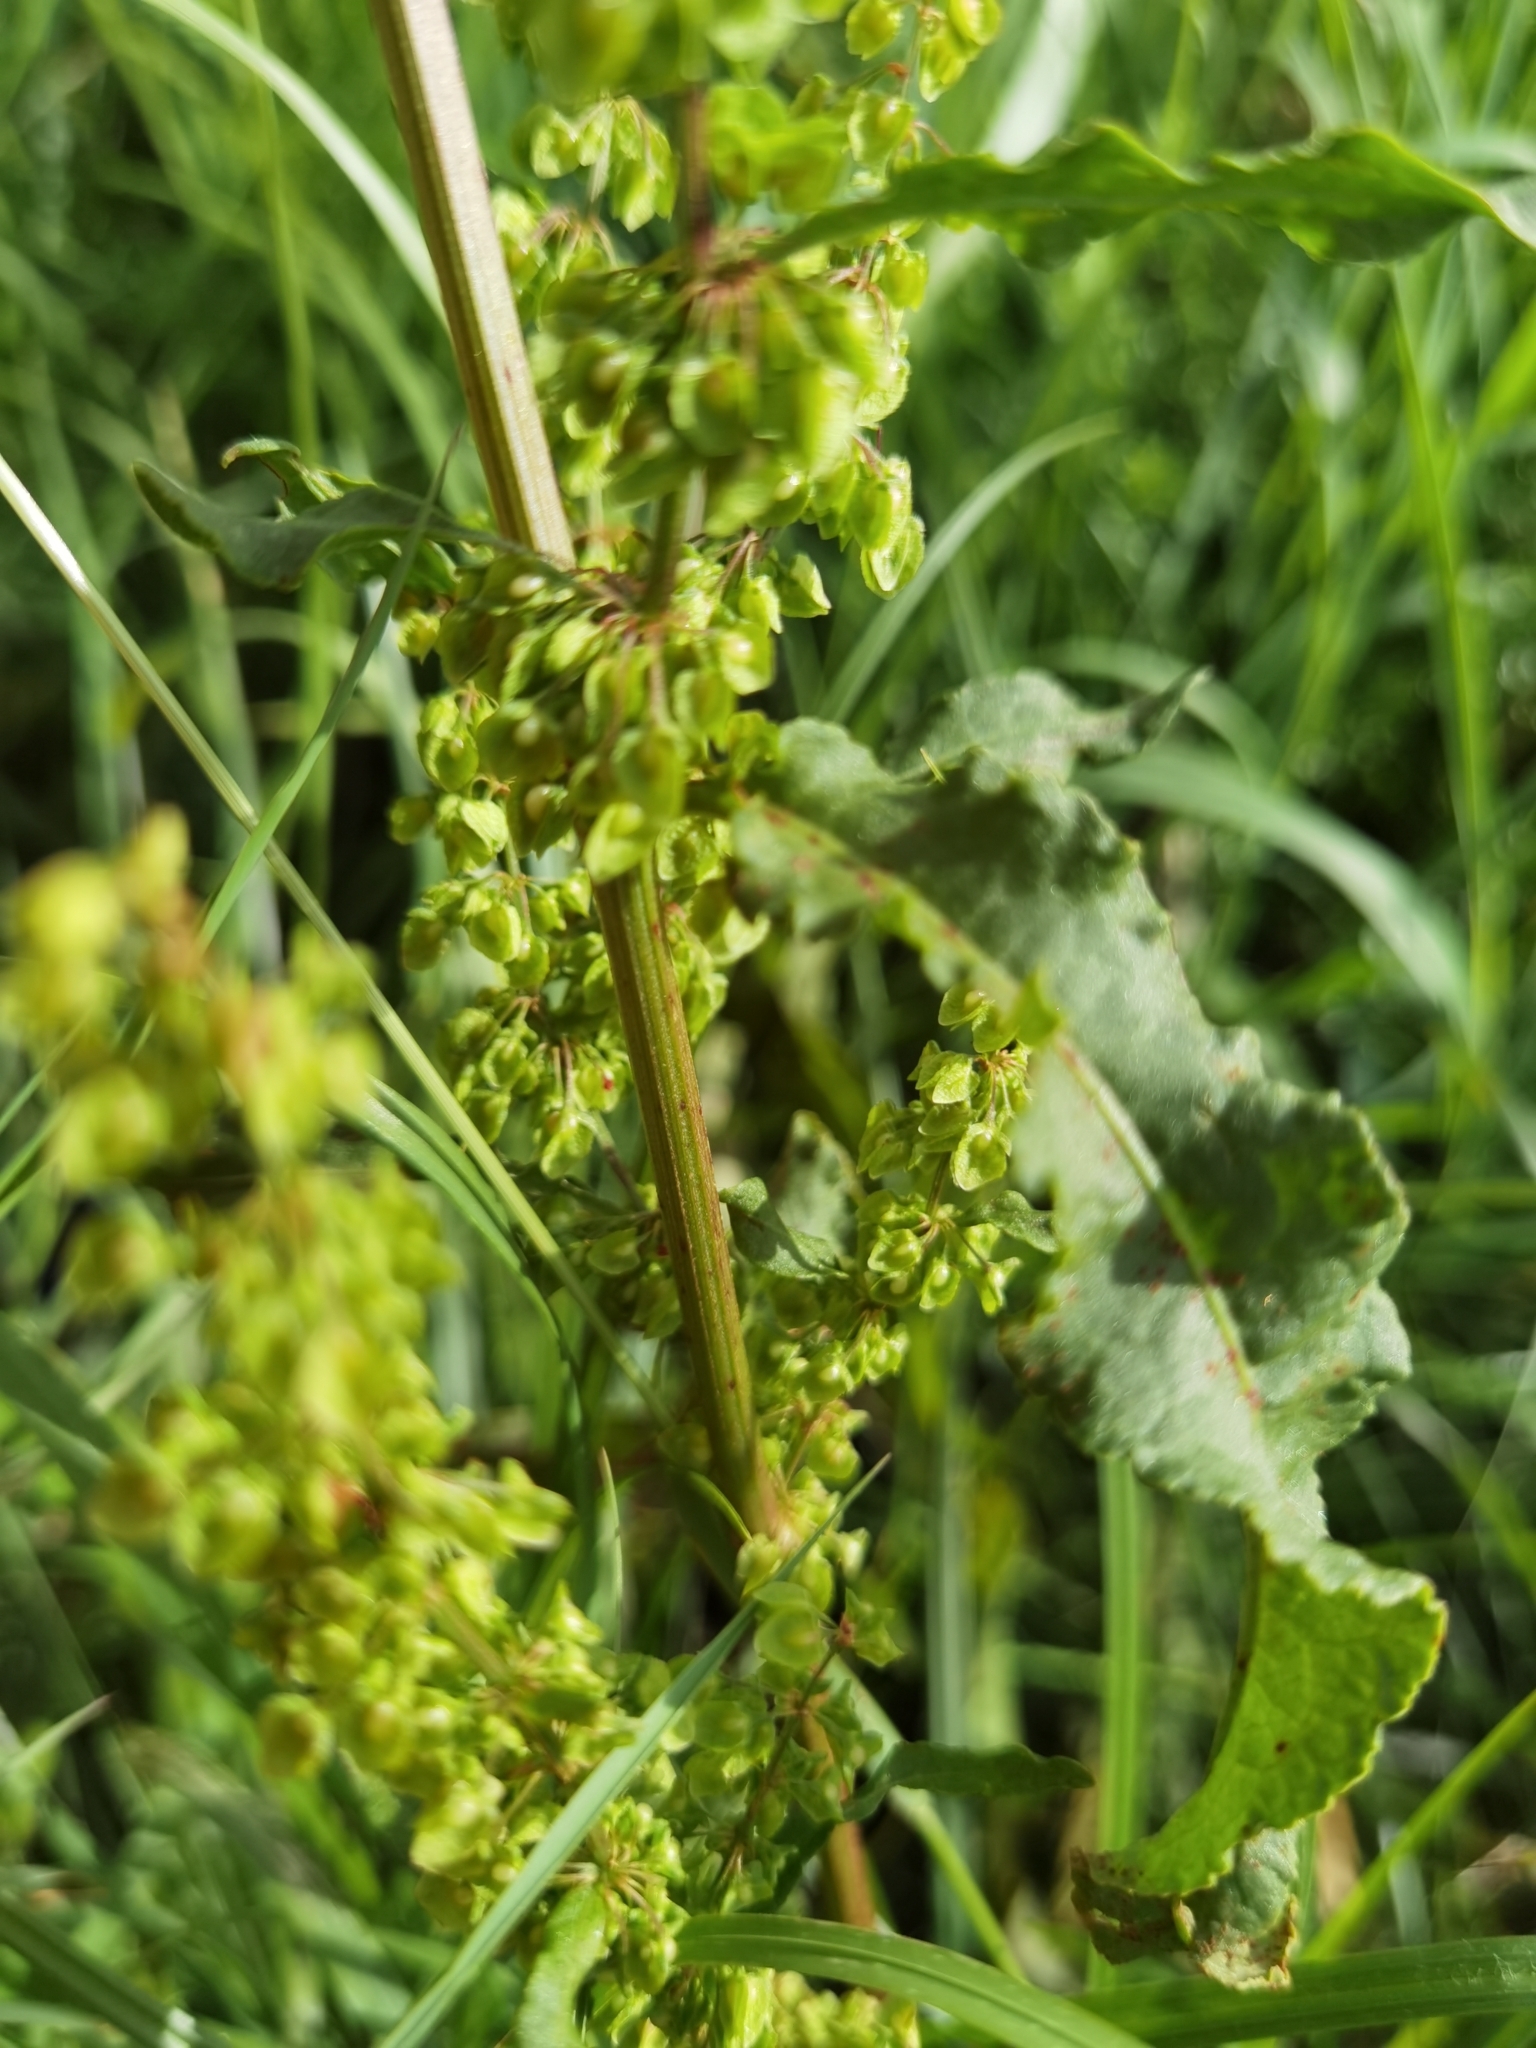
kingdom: Plantae
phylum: Tracheophyta
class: Magnoliopsida
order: Caryophyllales
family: Polygonaceae
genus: Rumex
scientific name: Rumex crispus
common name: Curled dock
